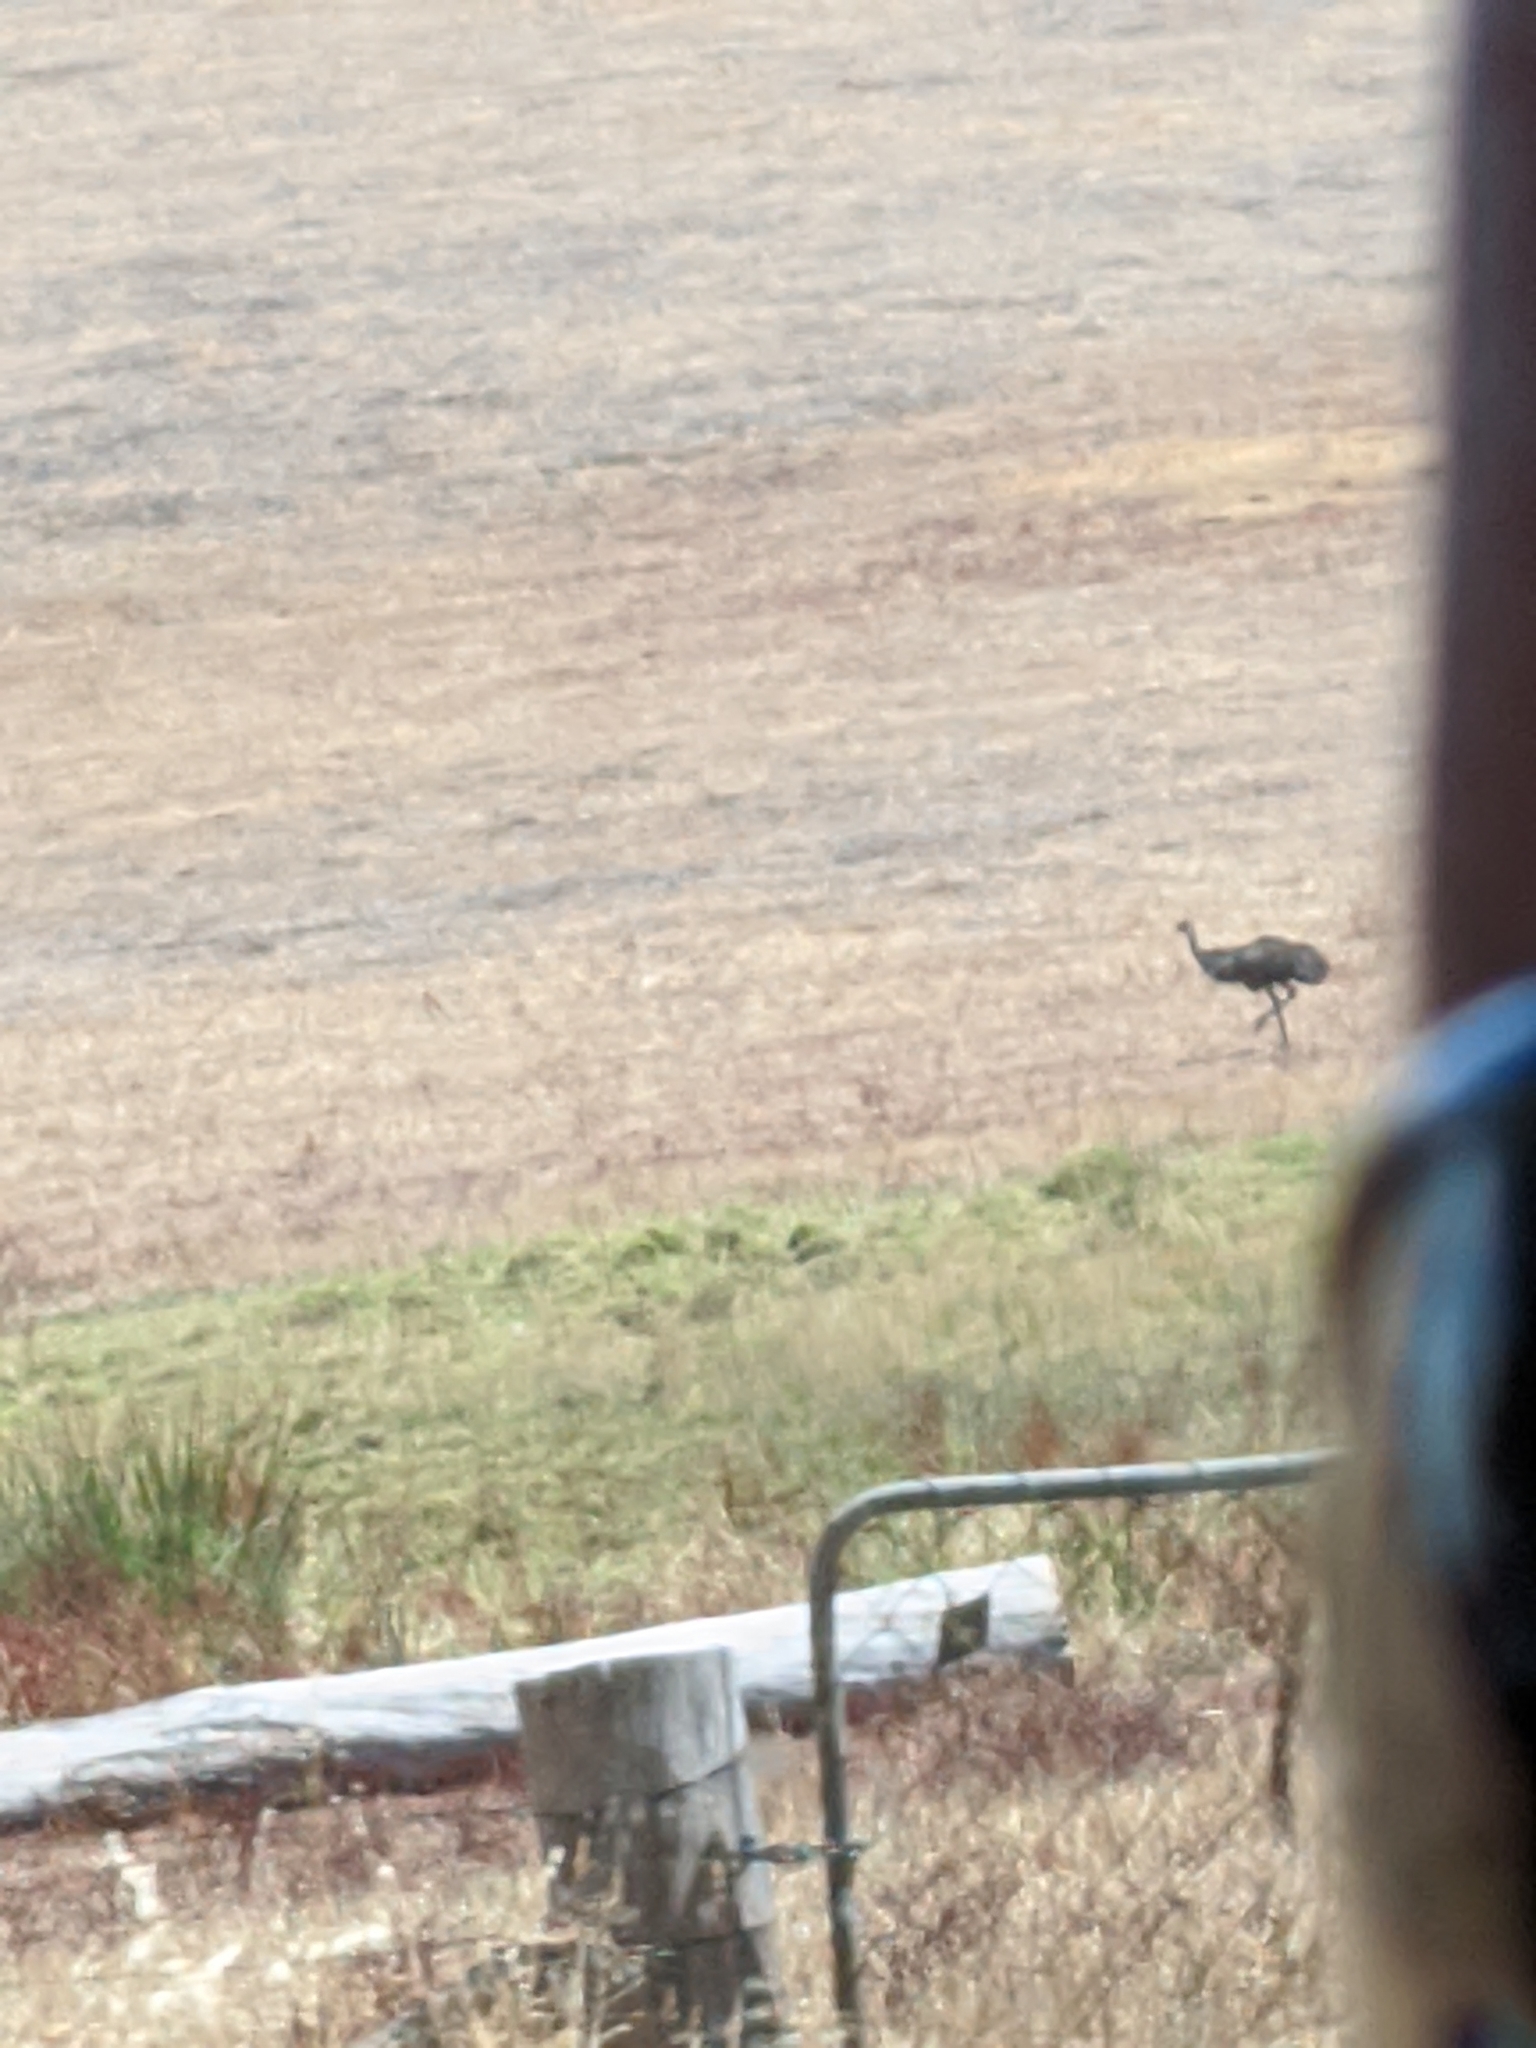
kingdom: Animalia
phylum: Chordata
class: Aves
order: Casuariiformes
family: Dromaiidae
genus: Dromaius
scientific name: Dromaius novaehollandiae
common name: Emu
